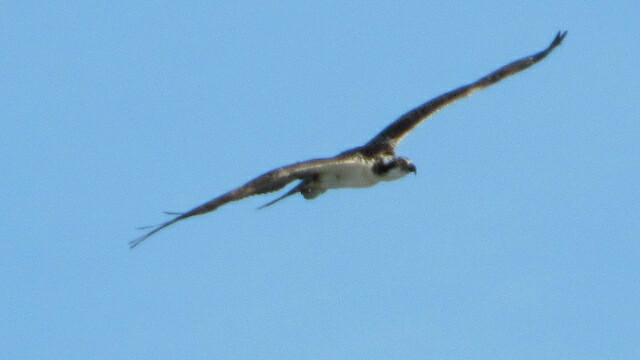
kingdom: Animalia
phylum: Chordata
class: Aves
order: Accipitriformes
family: Pandionidae
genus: Pandion
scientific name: Pandion haliaetus
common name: Osprey
